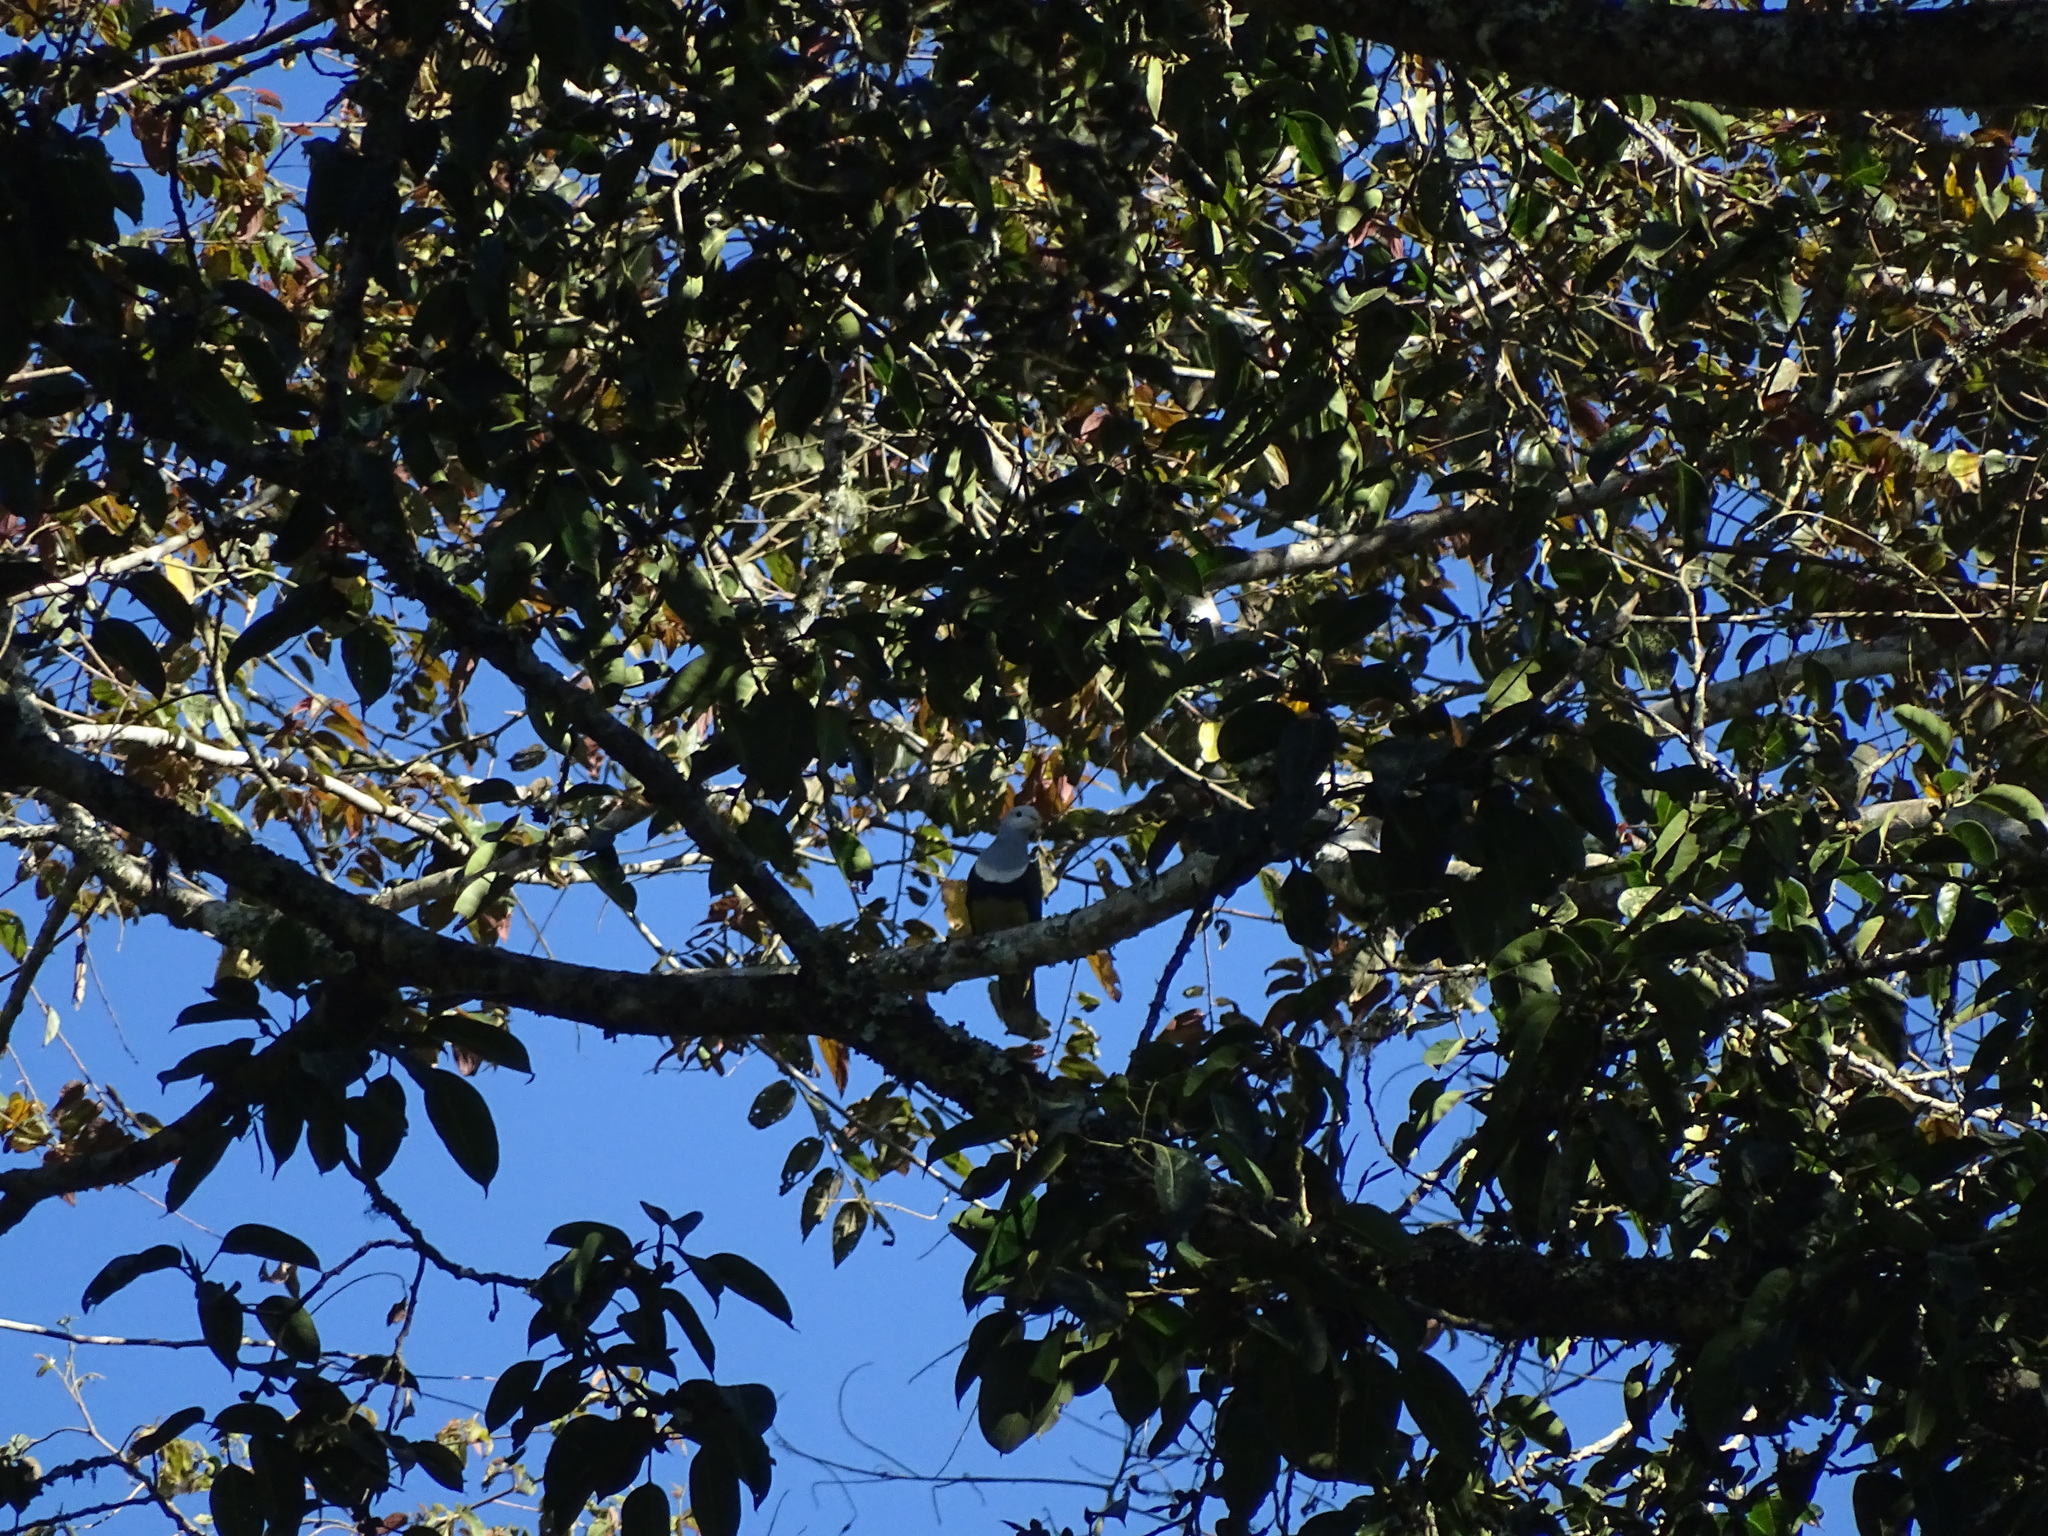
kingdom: Animalia
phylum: Chordata
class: Aves
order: Columbiformes
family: Columbidae
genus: Ptilinopus
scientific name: Ptilinopus cinctus
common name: Banded fruit dove
